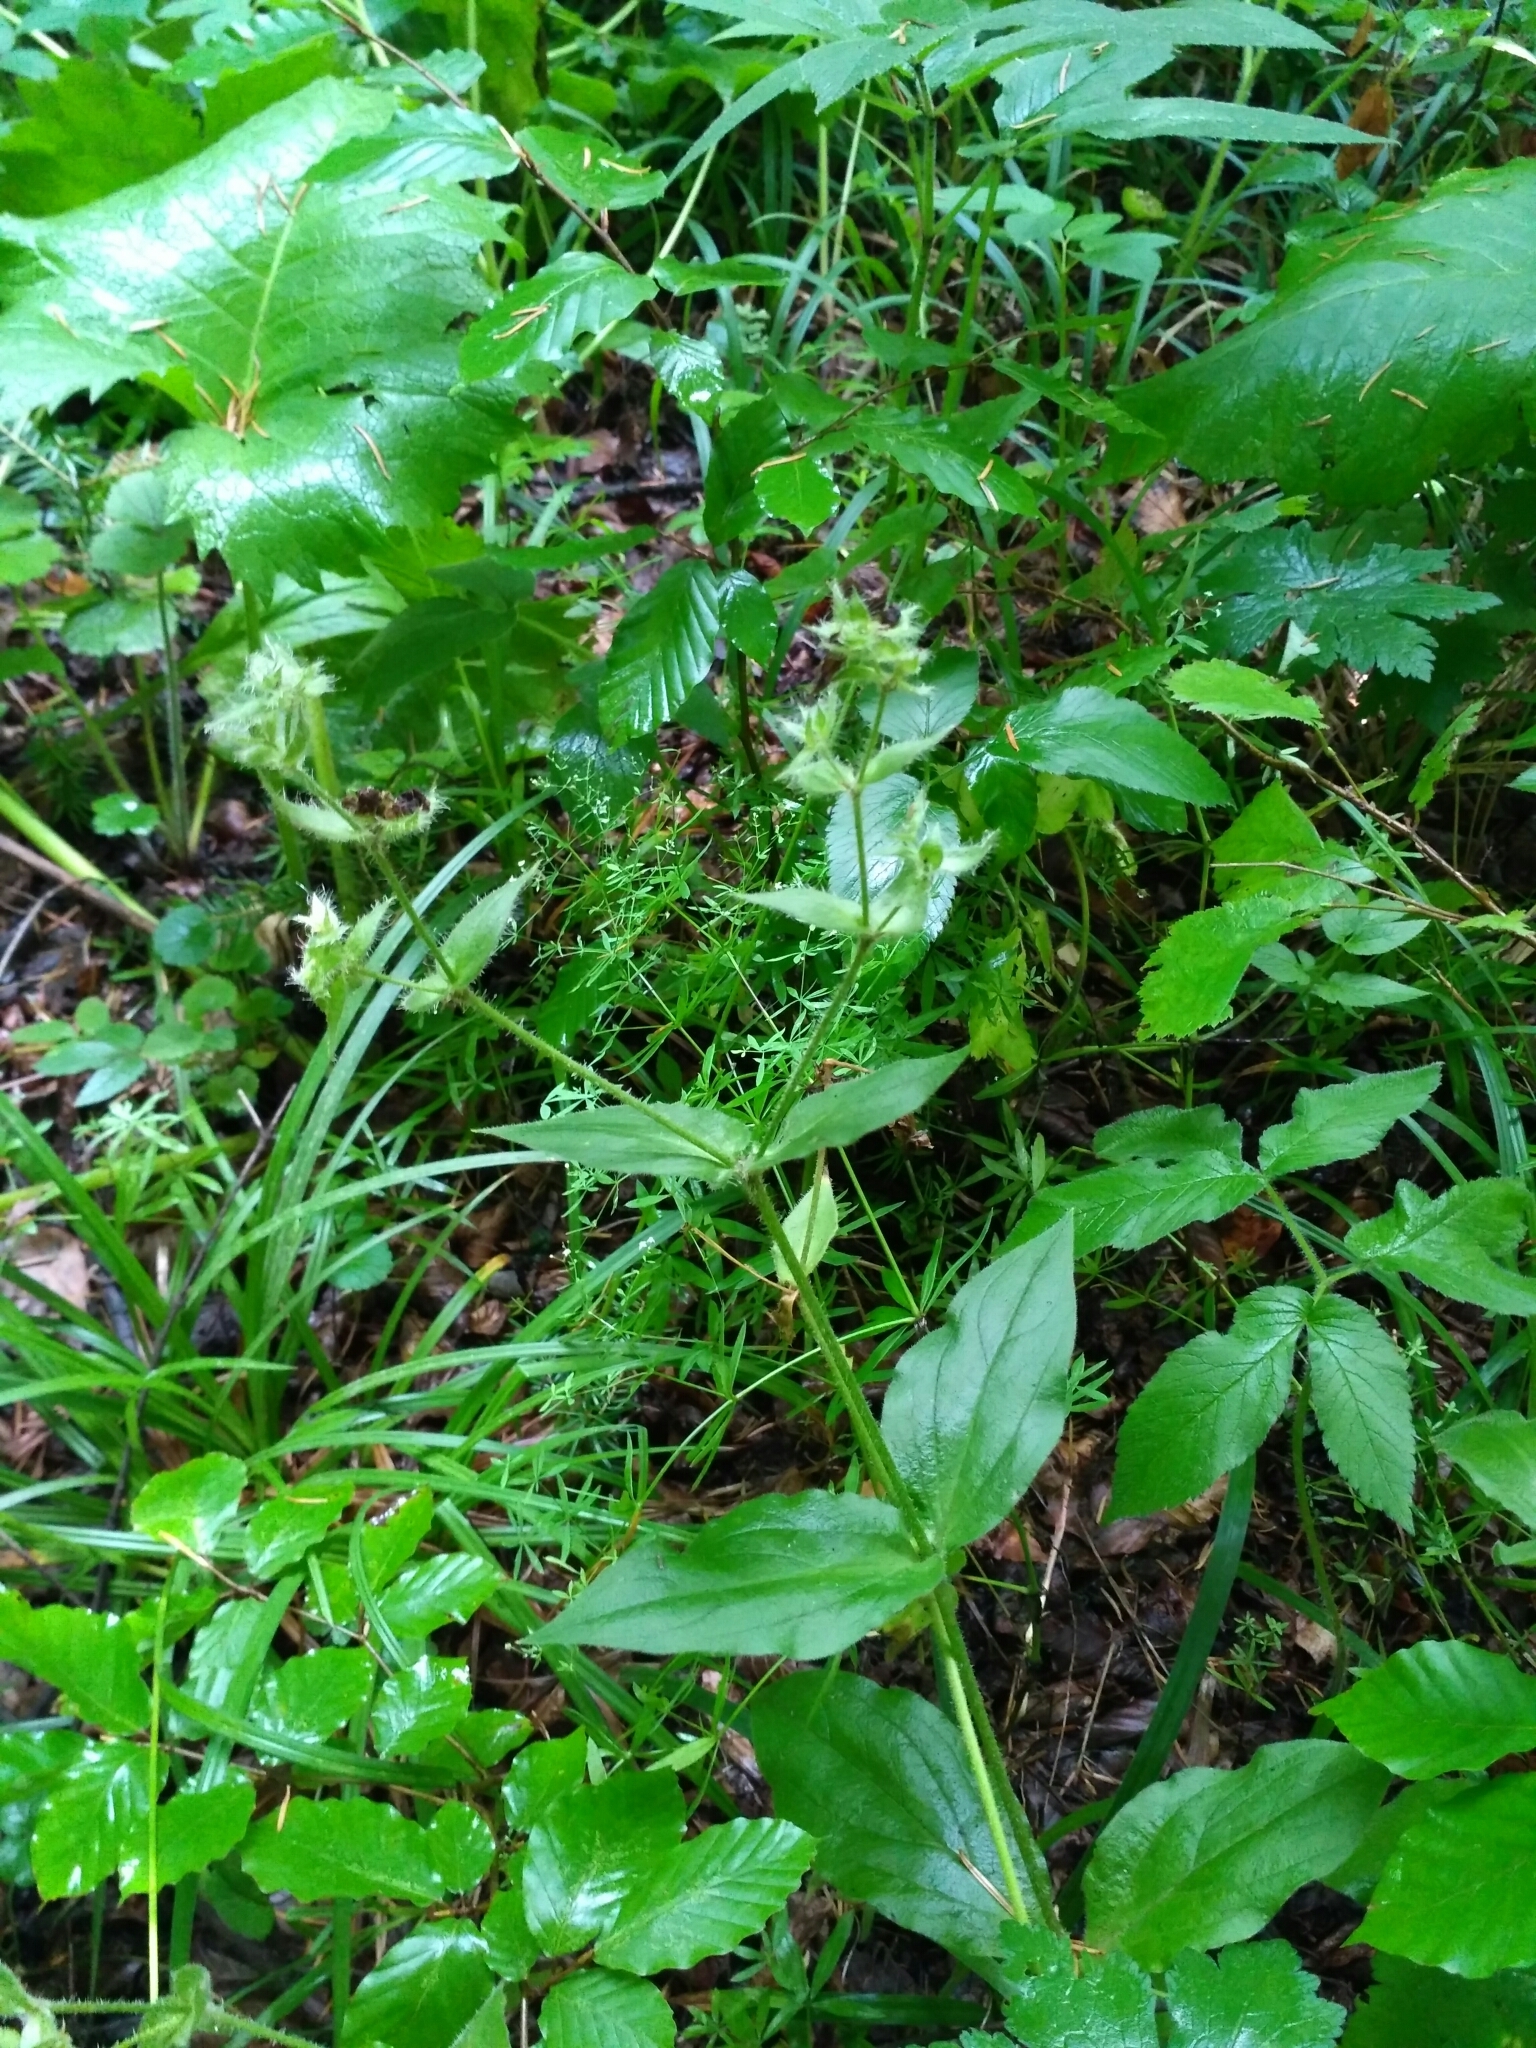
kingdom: Plantae
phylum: Tracheophyta
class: Magnoliopsida
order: Caryophyllales
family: Caryophyllaceae
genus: Stellaria
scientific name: Stellaria aquatica
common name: Water chickweed
